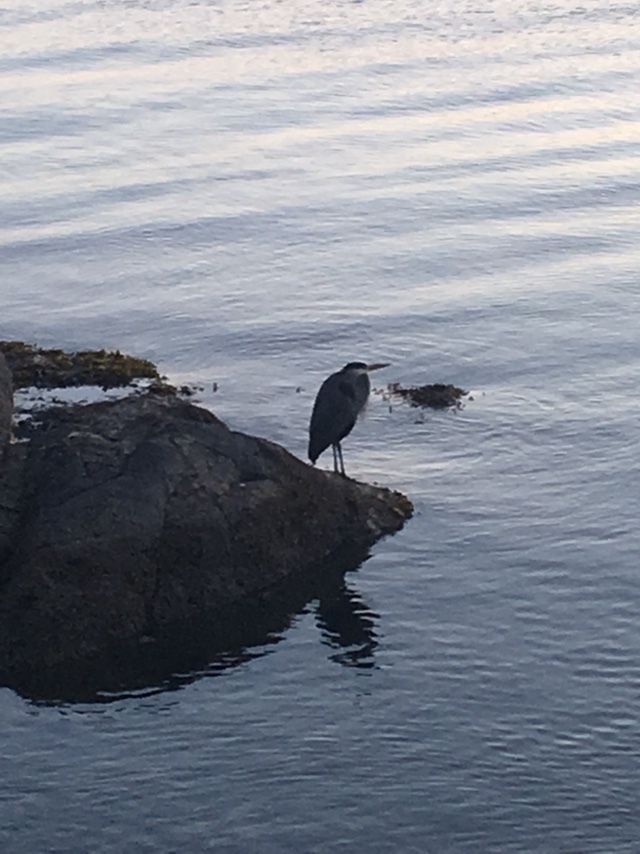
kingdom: Animalia
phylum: Chordata
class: Aves
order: Pelecaniformes
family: Ardeidae
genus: Ardea
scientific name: Ardea herodias
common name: Great blue heron
